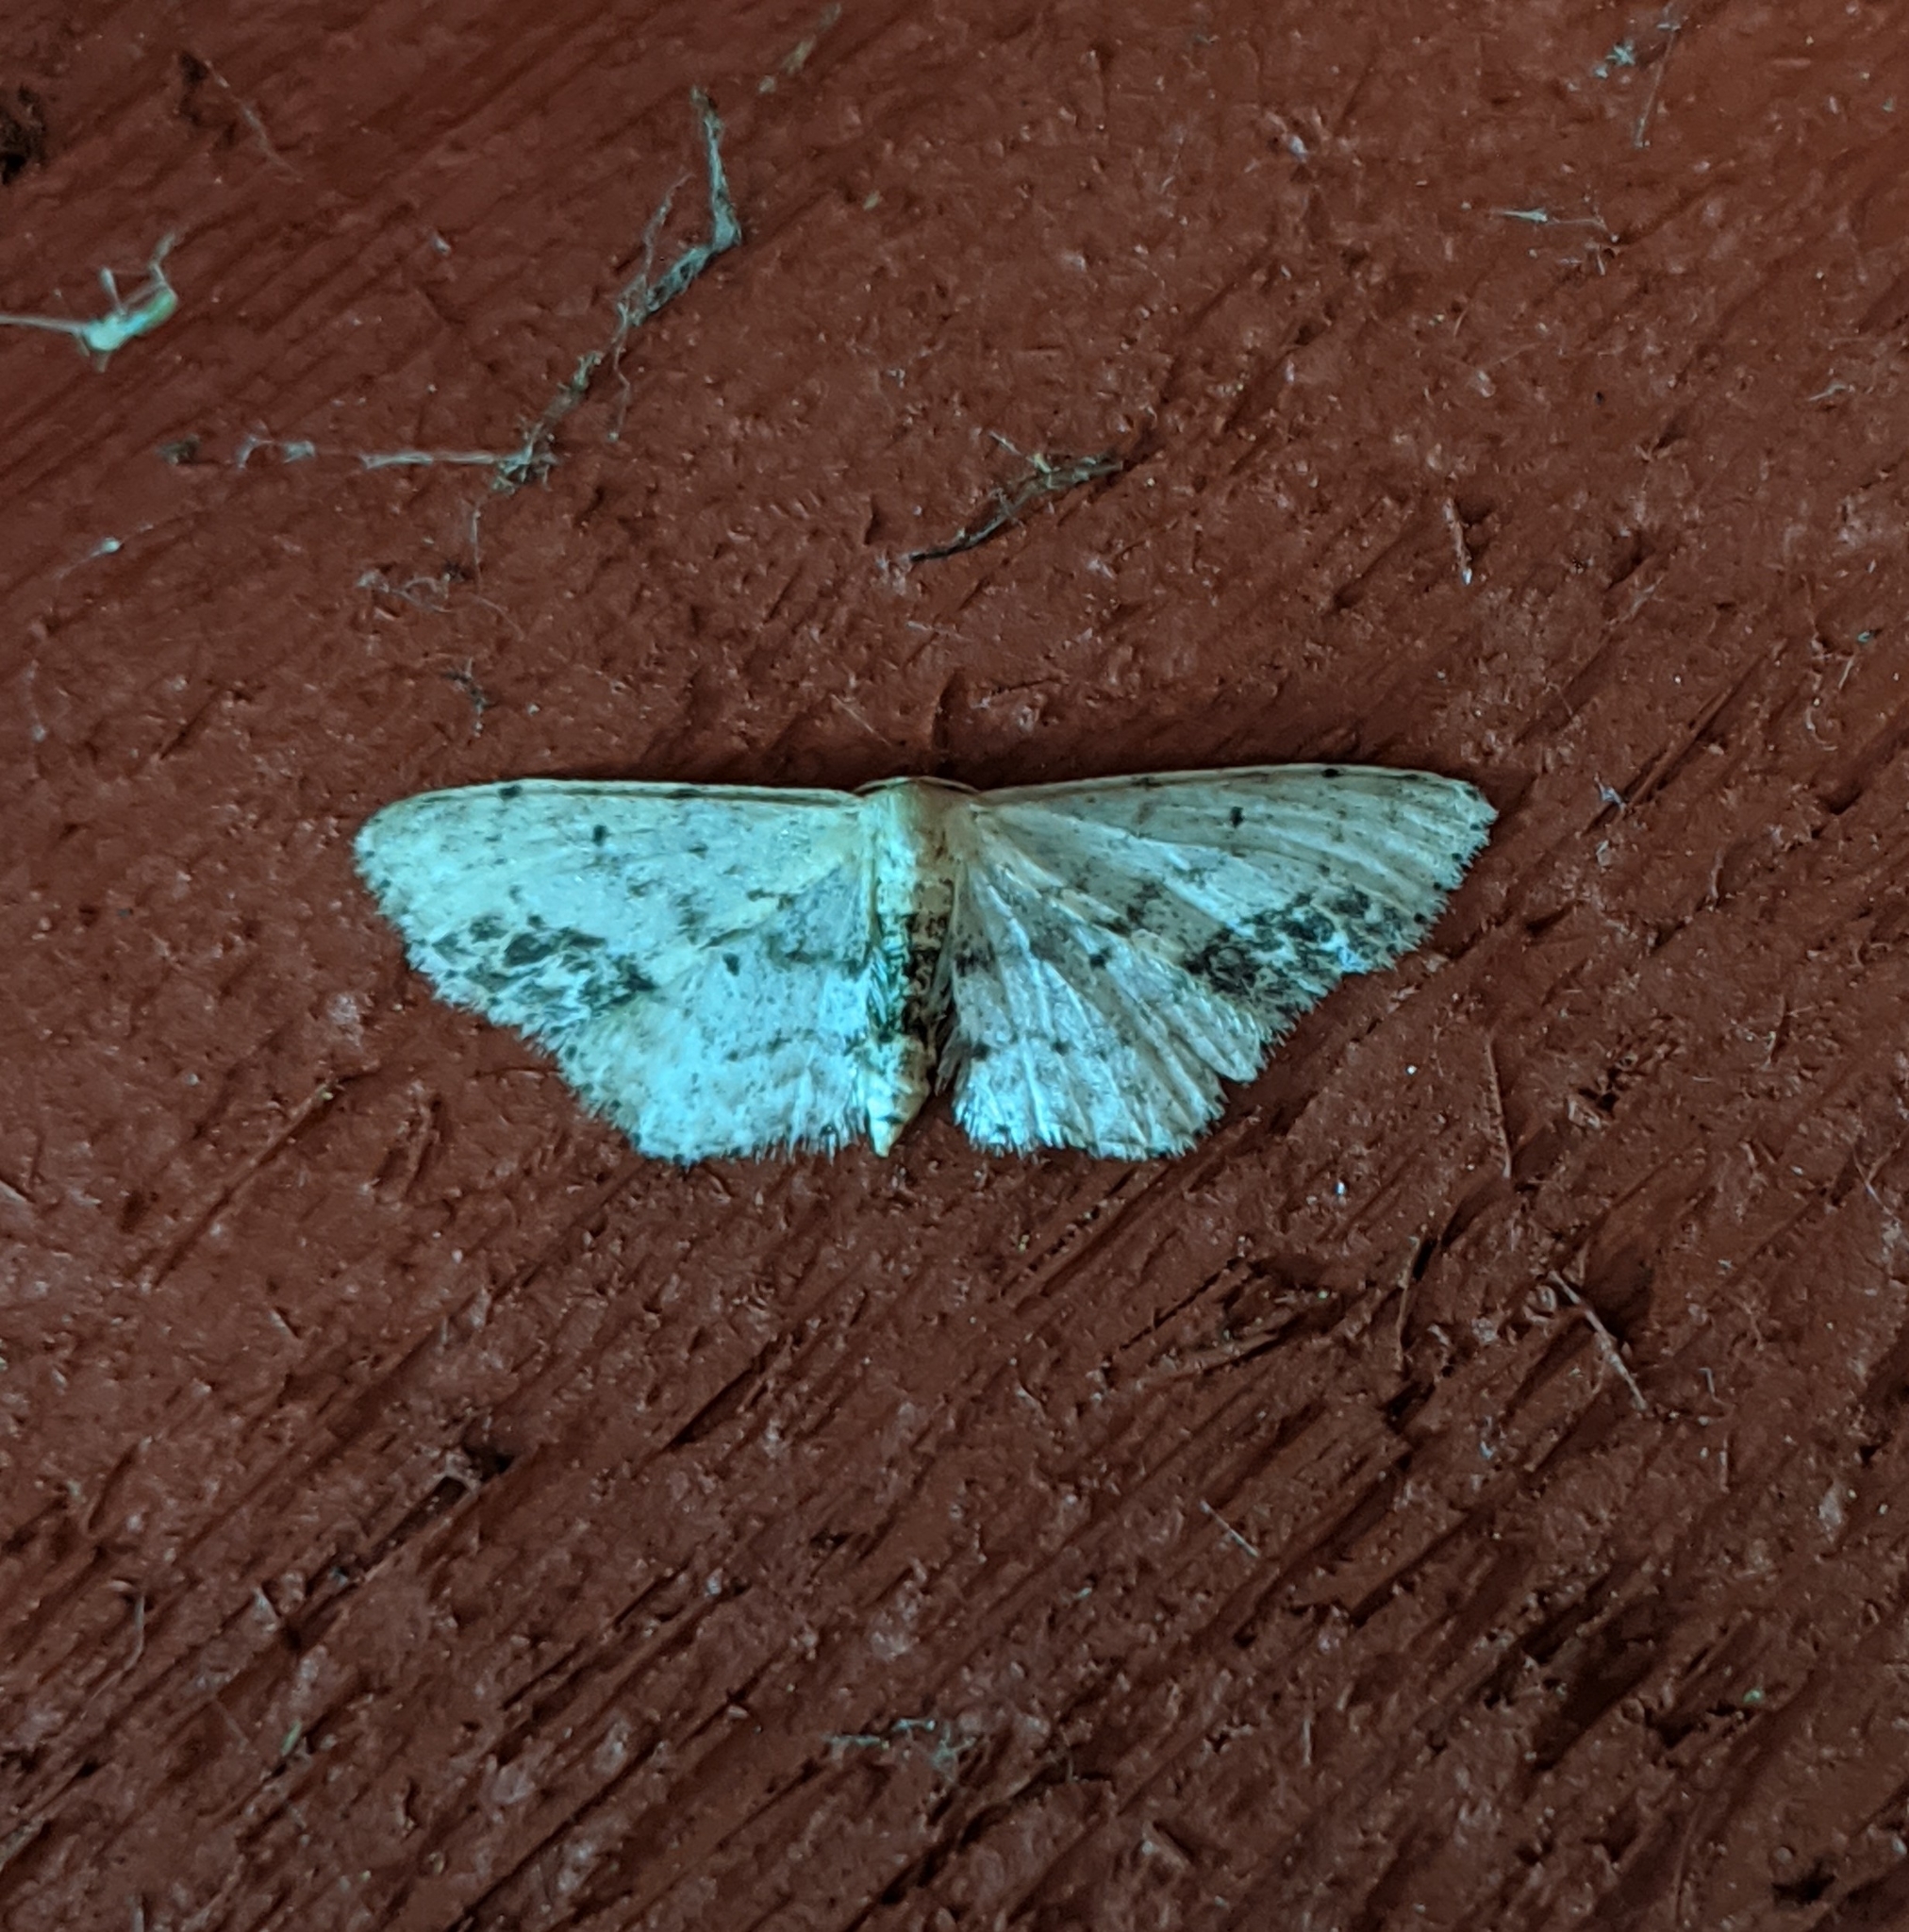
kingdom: Animalia
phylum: Arthropoda
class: Insecta
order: Lepidoptera
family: Geometridae
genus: Idaea
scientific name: Idaea dimidiata
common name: Single-dotted wave
